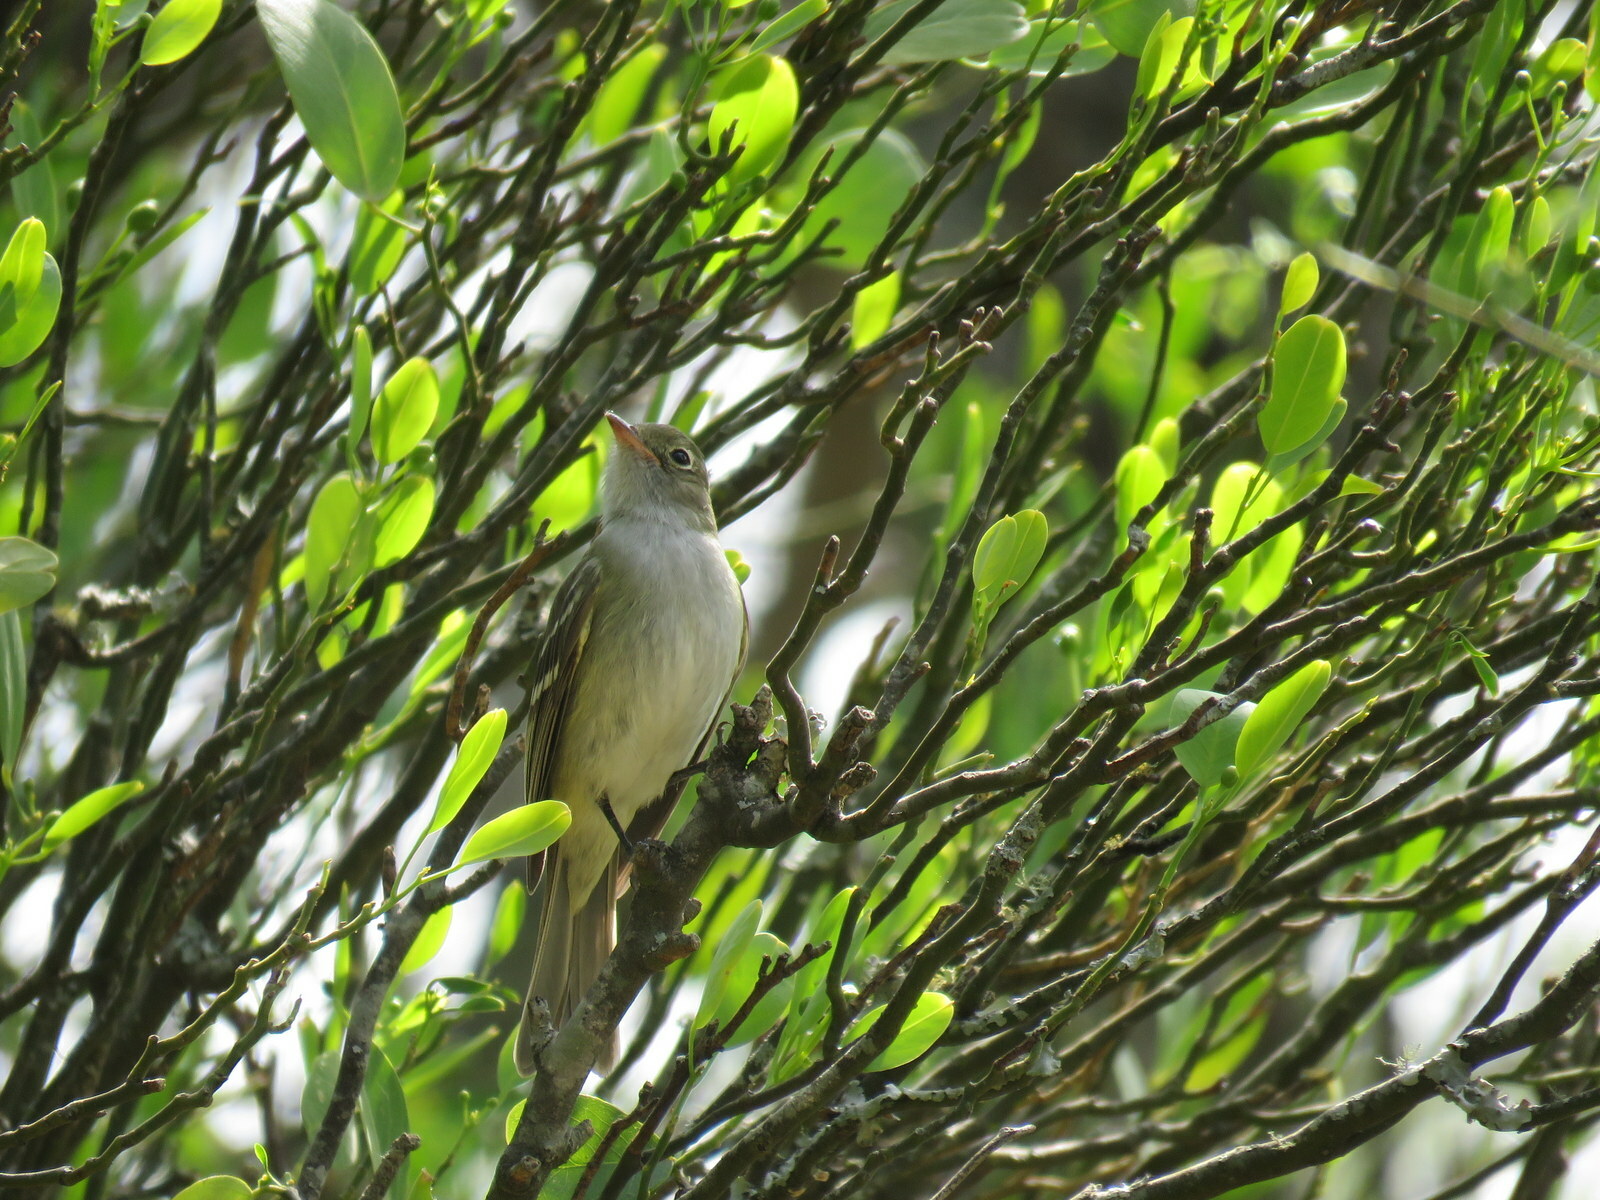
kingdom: Animalia
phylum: Chordata
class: Aves
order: Passeriformes
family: Tyrannidae
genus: Elaenia
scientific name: Elaenia spectabilis
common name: Large elaenia
